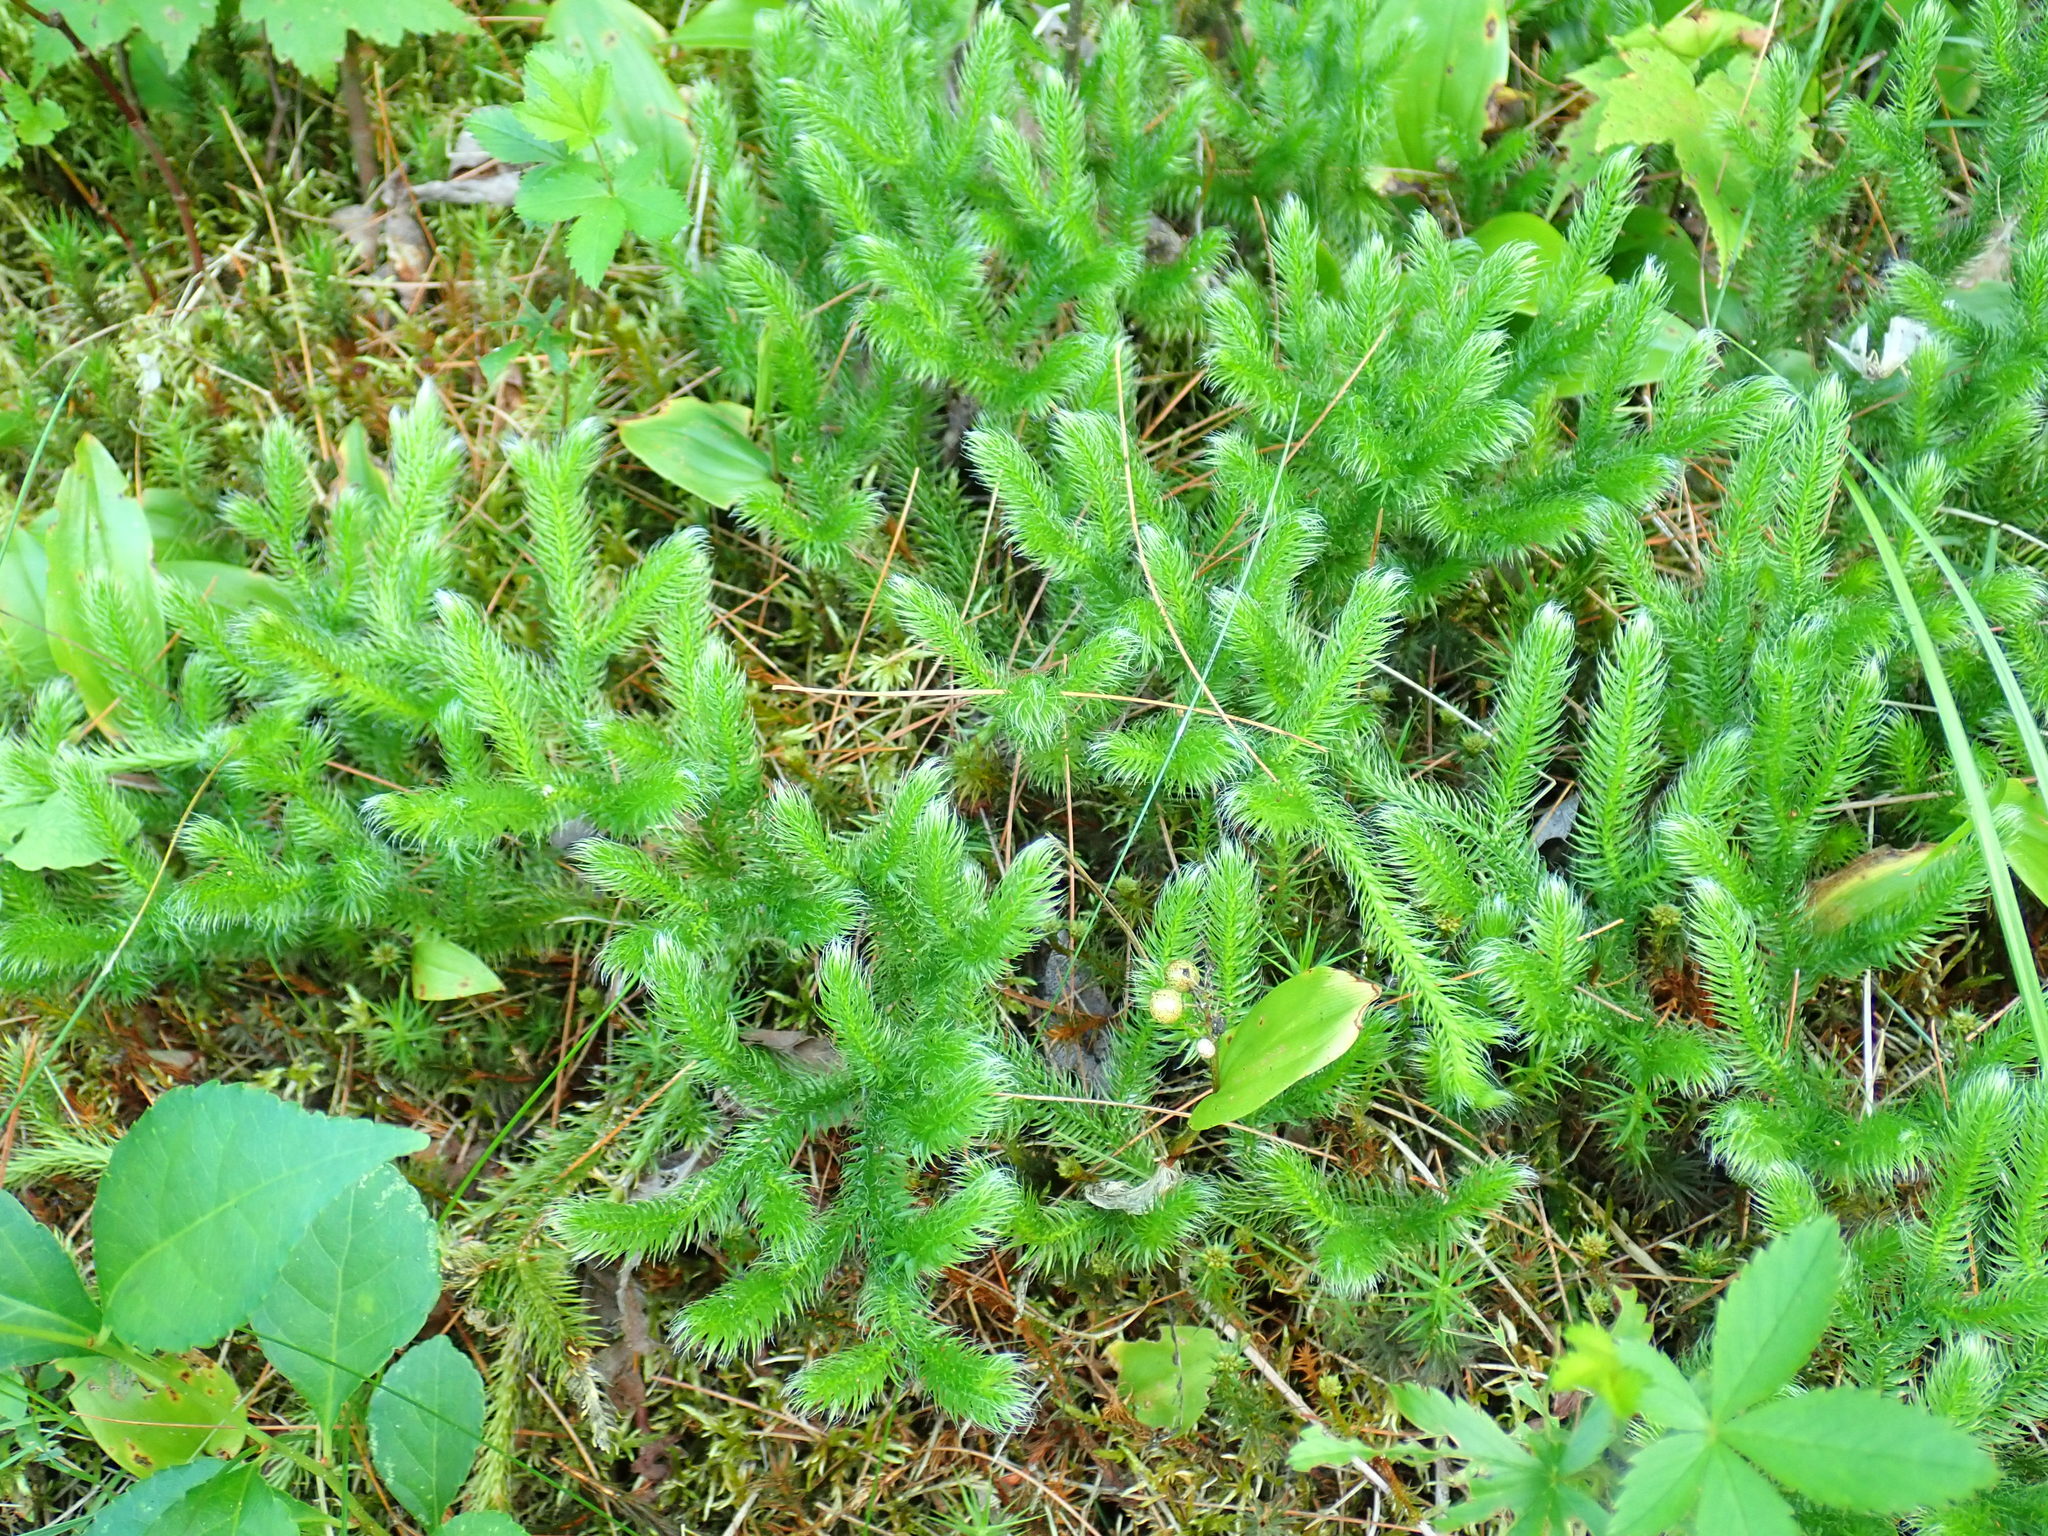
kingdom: Plantae
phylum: Tracheophyta
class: Lycopodiopsida
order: Lycopodiales
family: Lycopodiaceae
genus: Lycopodium
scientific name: Lycopodium clavatum
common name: Stag's-horn clubmoss
